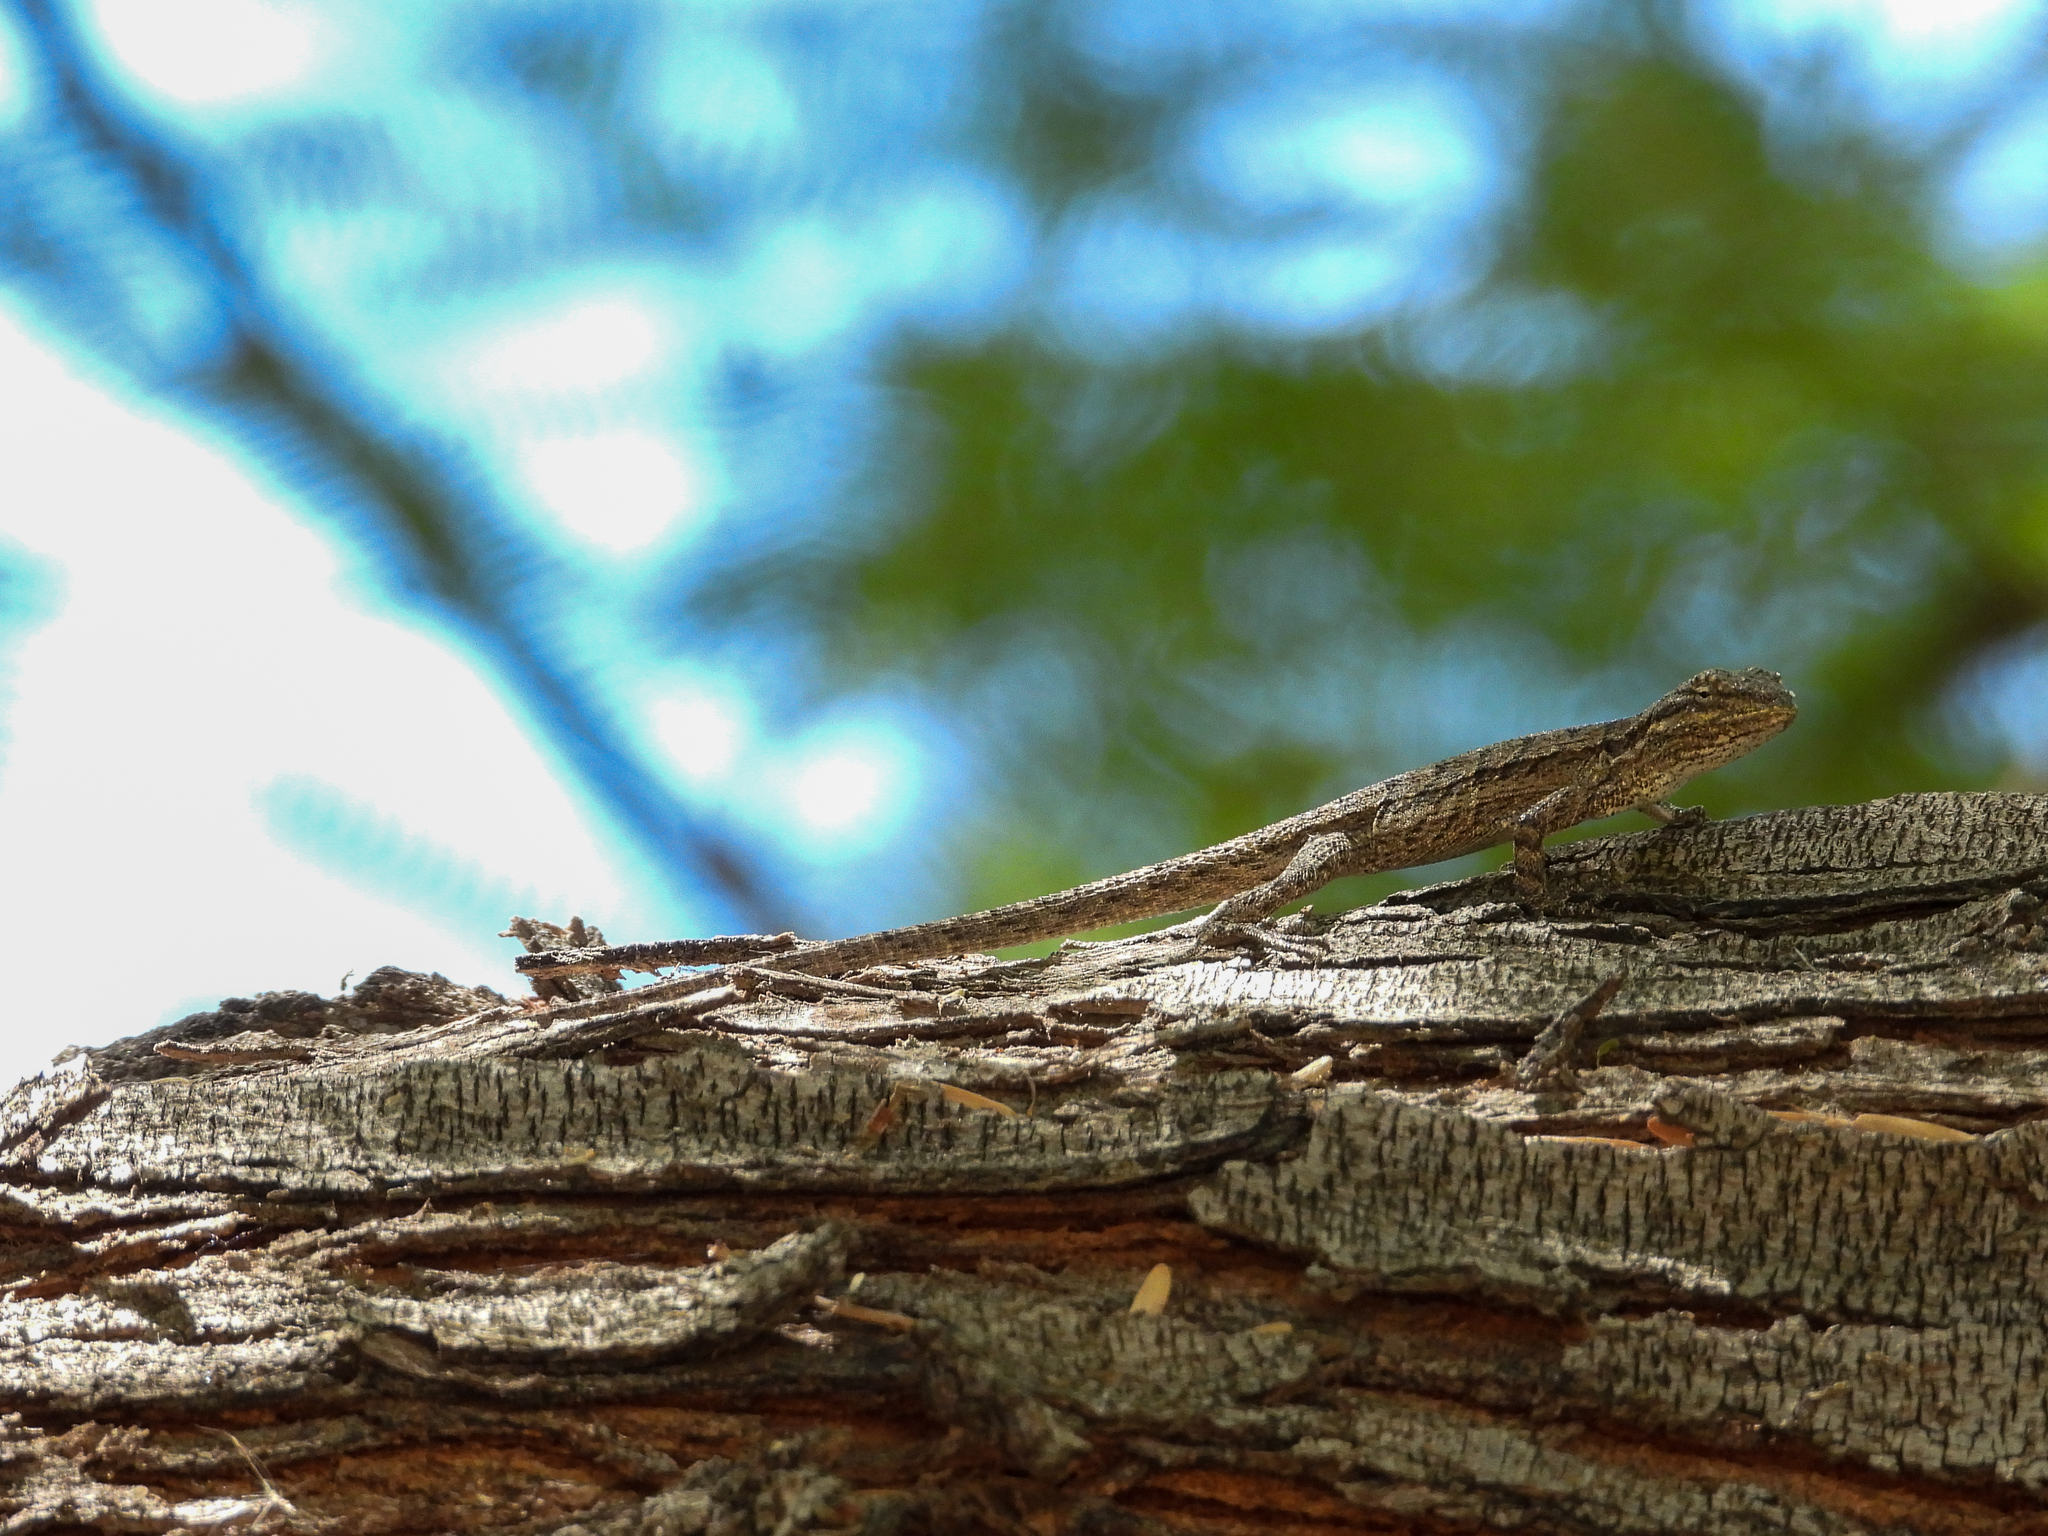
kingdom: Animalia
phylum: Chordata
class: Squamata
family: Phrynosomatidae
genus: Urosaurus
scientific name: Urosaurus graciosus
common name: Long-tailed brush lizard
